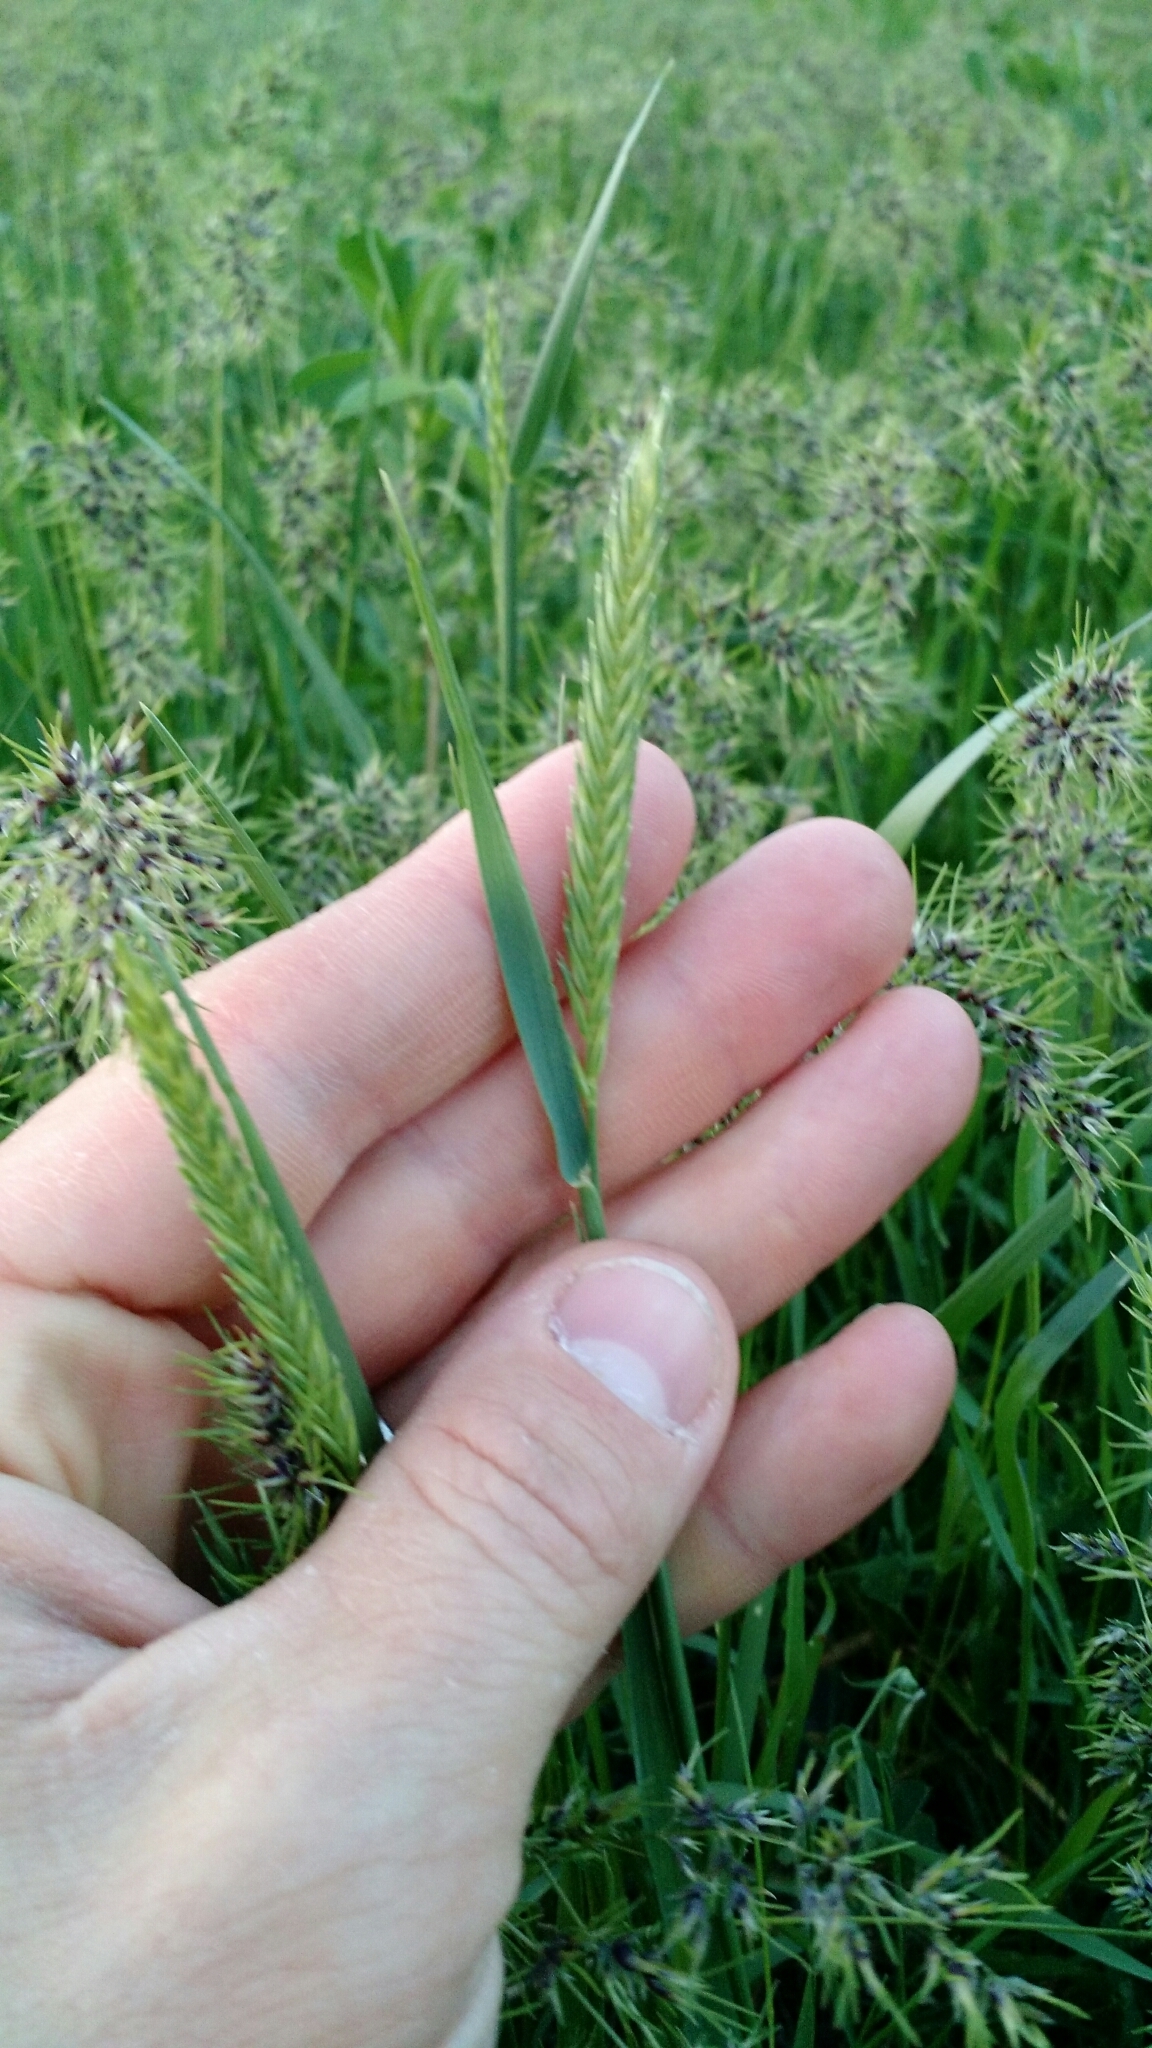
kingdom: Plantae
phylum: Tracheophyta
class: Liliopsida
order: Poales
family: Poaceae
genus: Agropyron
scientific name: Agropyron cristatum
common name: Crested wheatgrass
